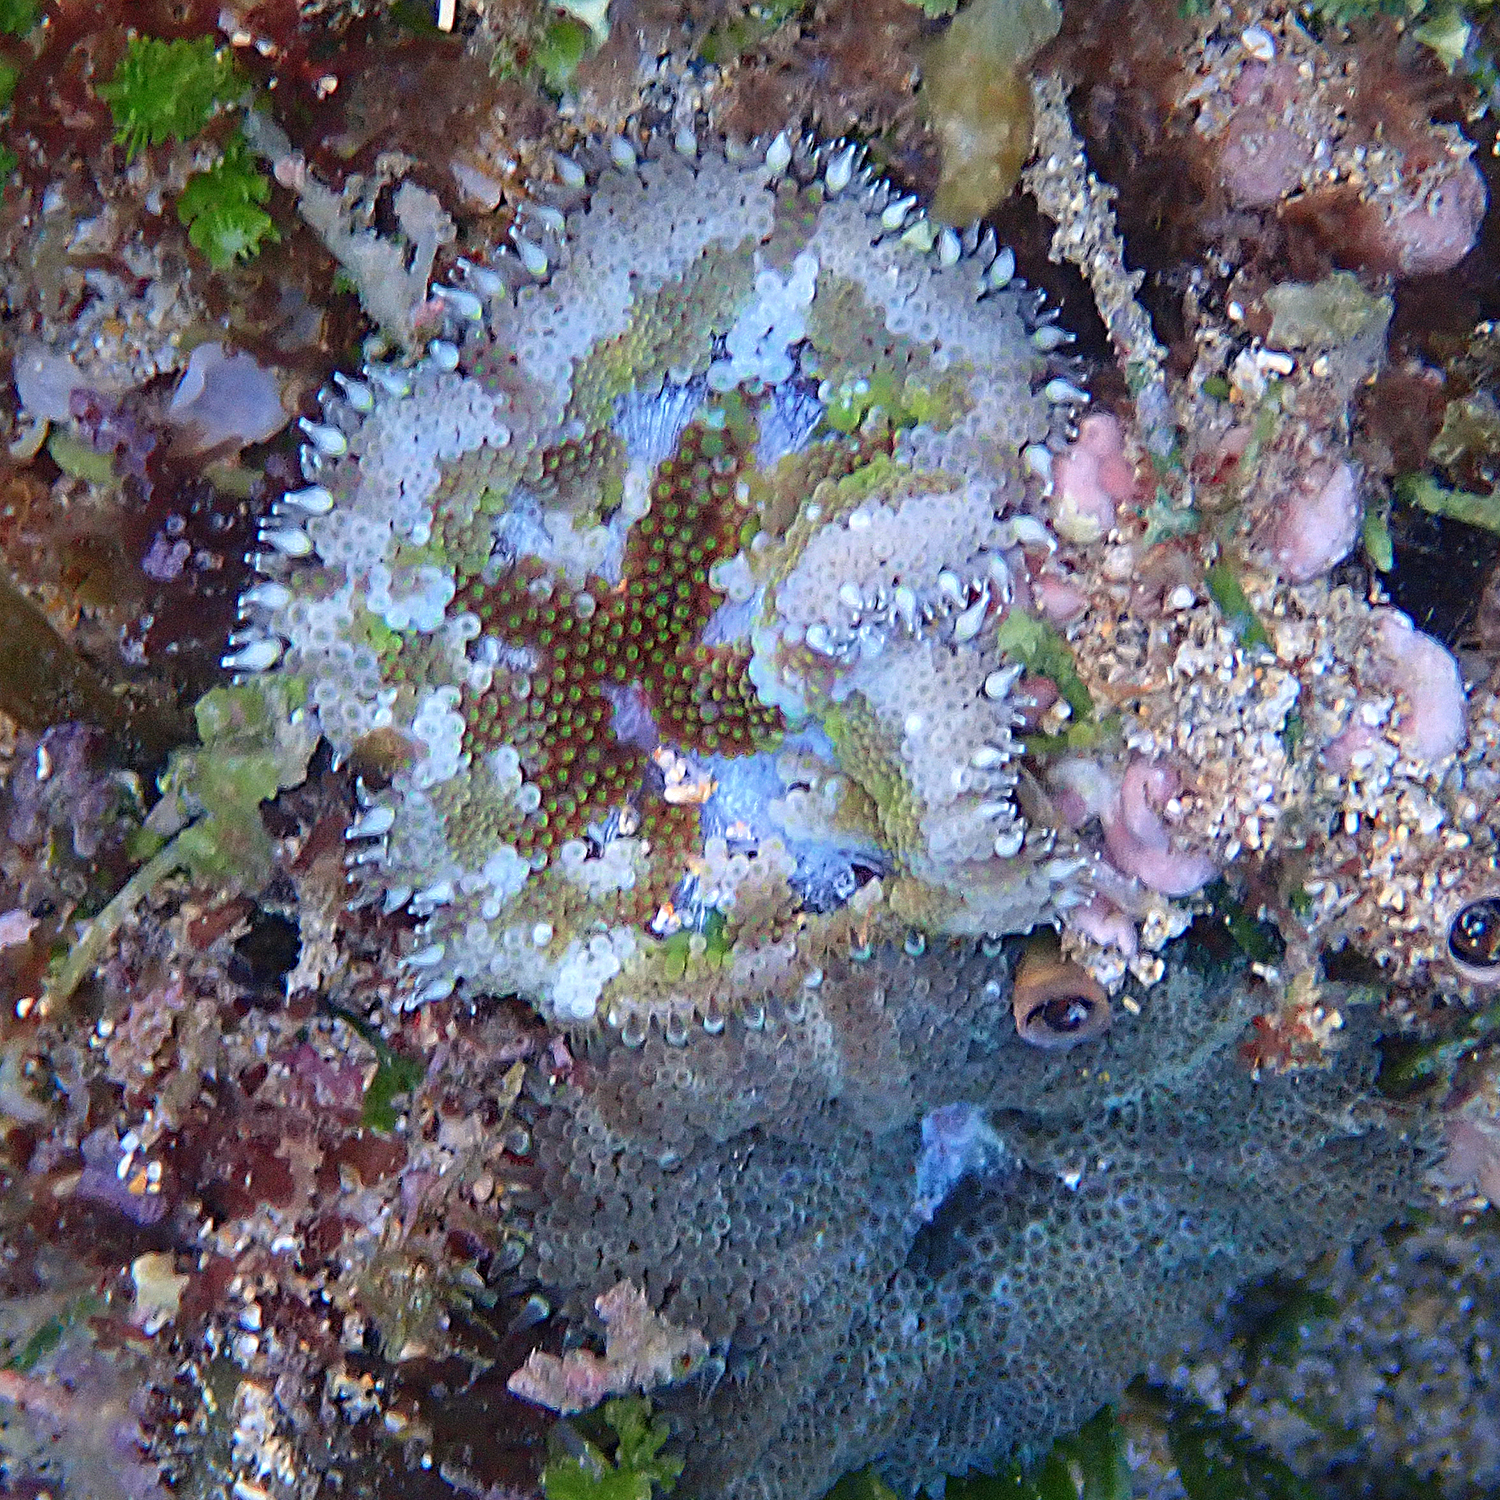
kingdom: Animalia
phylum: Cnidaria
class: Anthozoa
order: Actiniaria
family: Stichodactylidae
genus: Stichodactyla
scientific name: Stichodactyla tapetum
